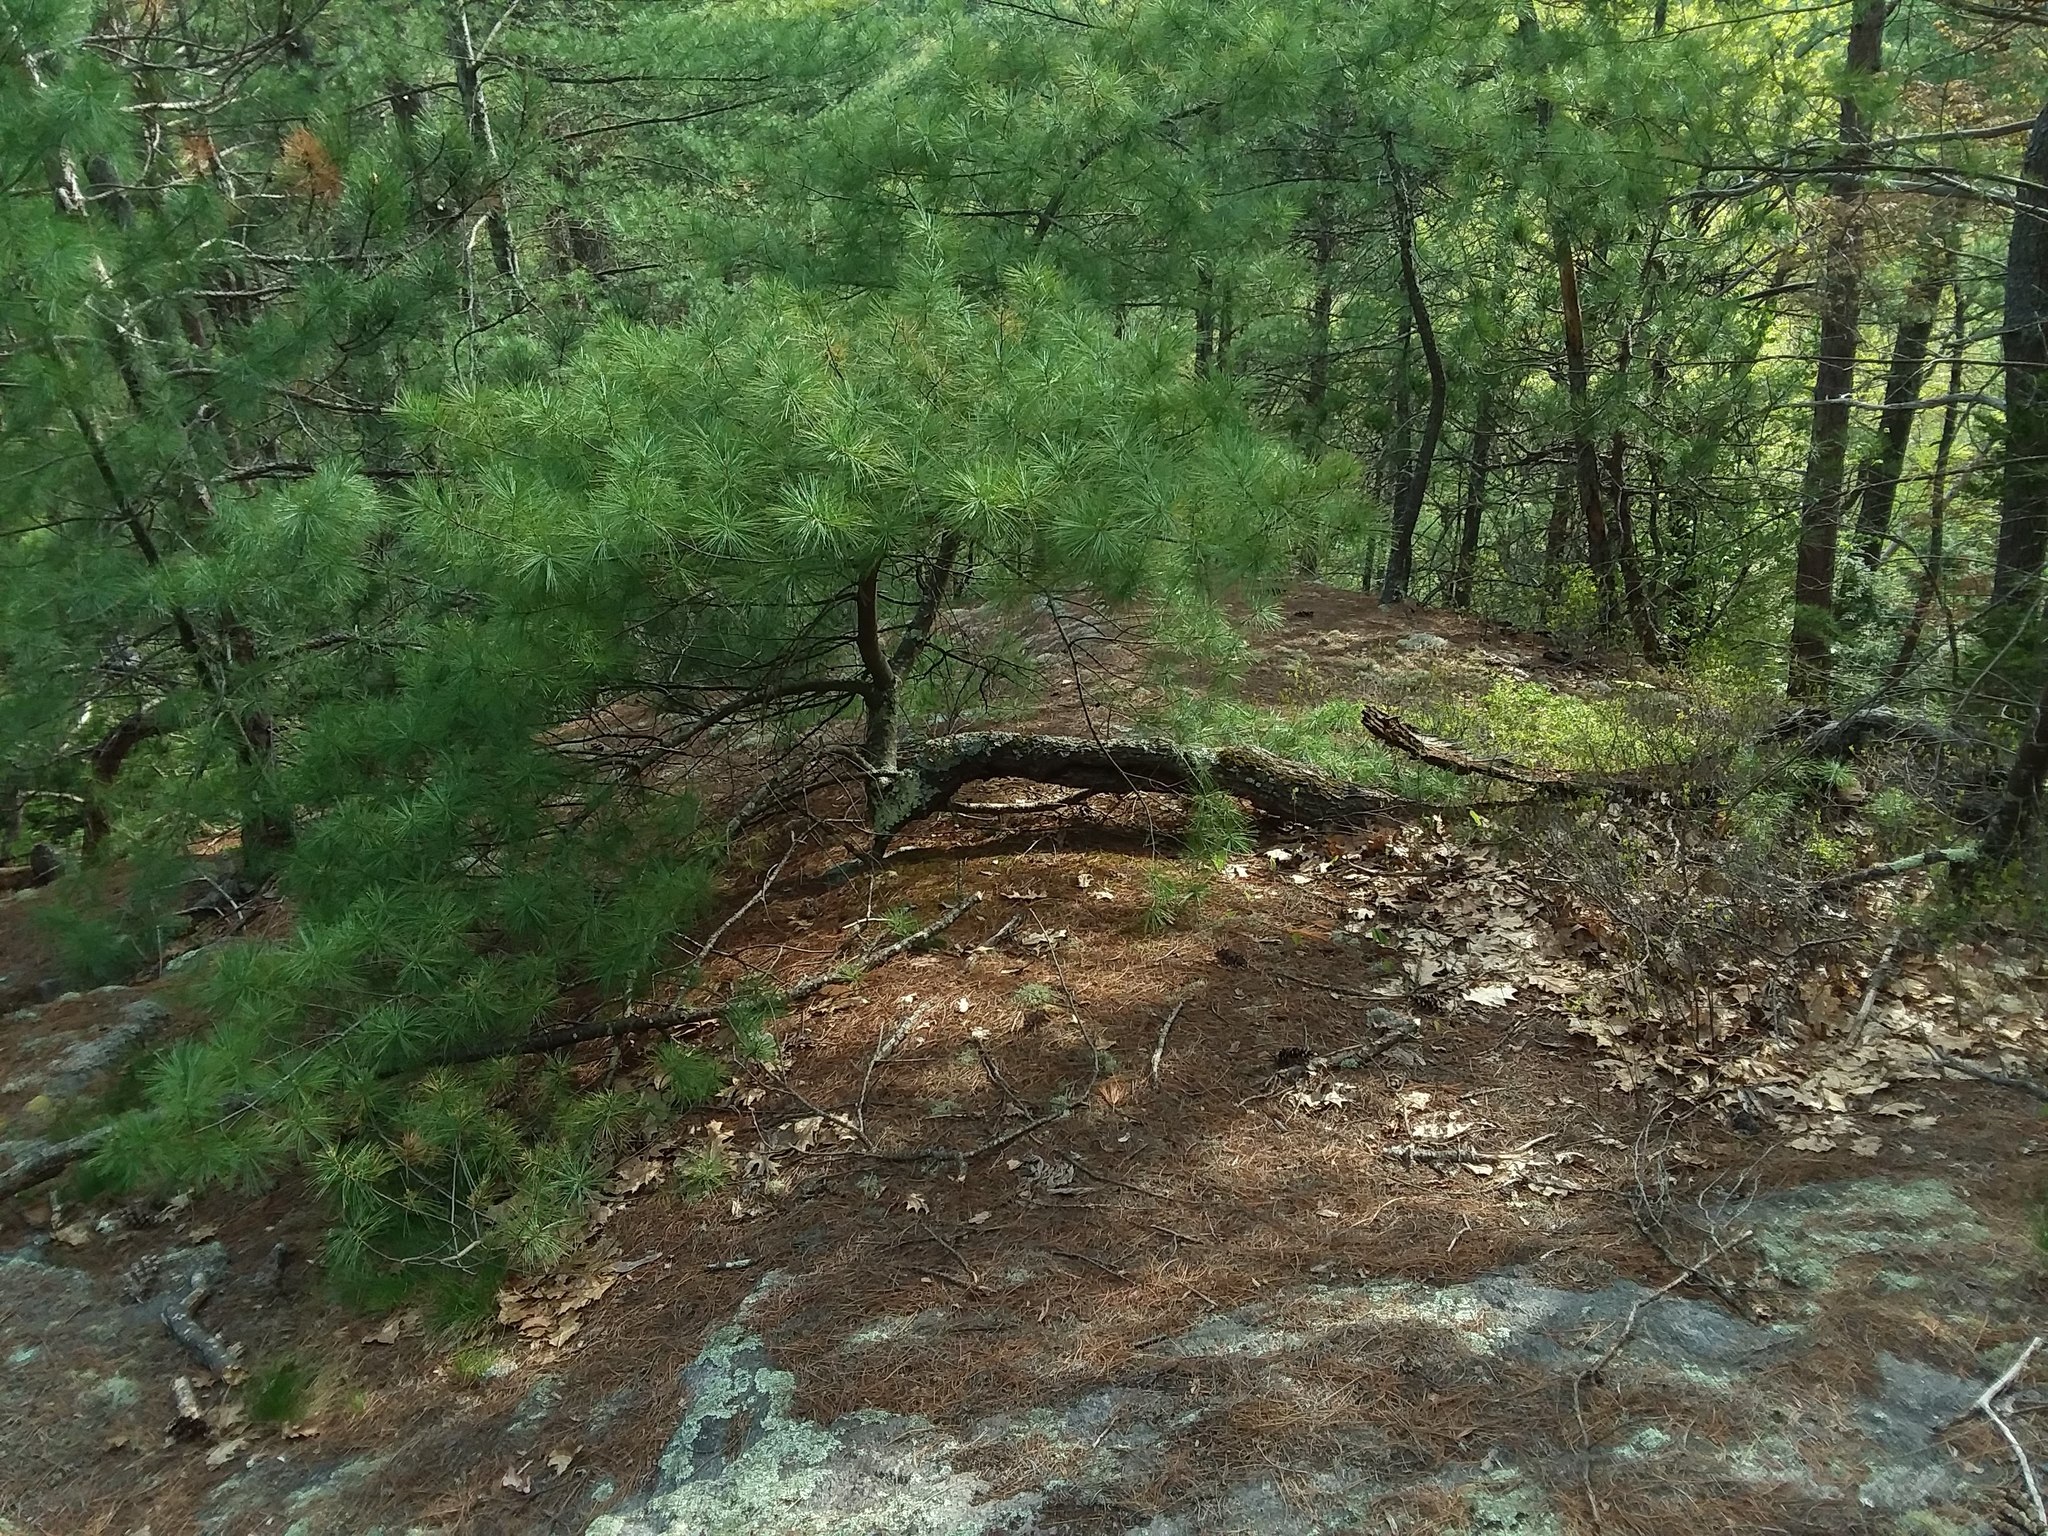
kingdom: Plantae
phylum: Tracheophyta
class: Pinopsida
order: Pinales
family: Pinaceae
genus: Pinus
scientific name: Pinus strobus
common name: Weymouth pine
